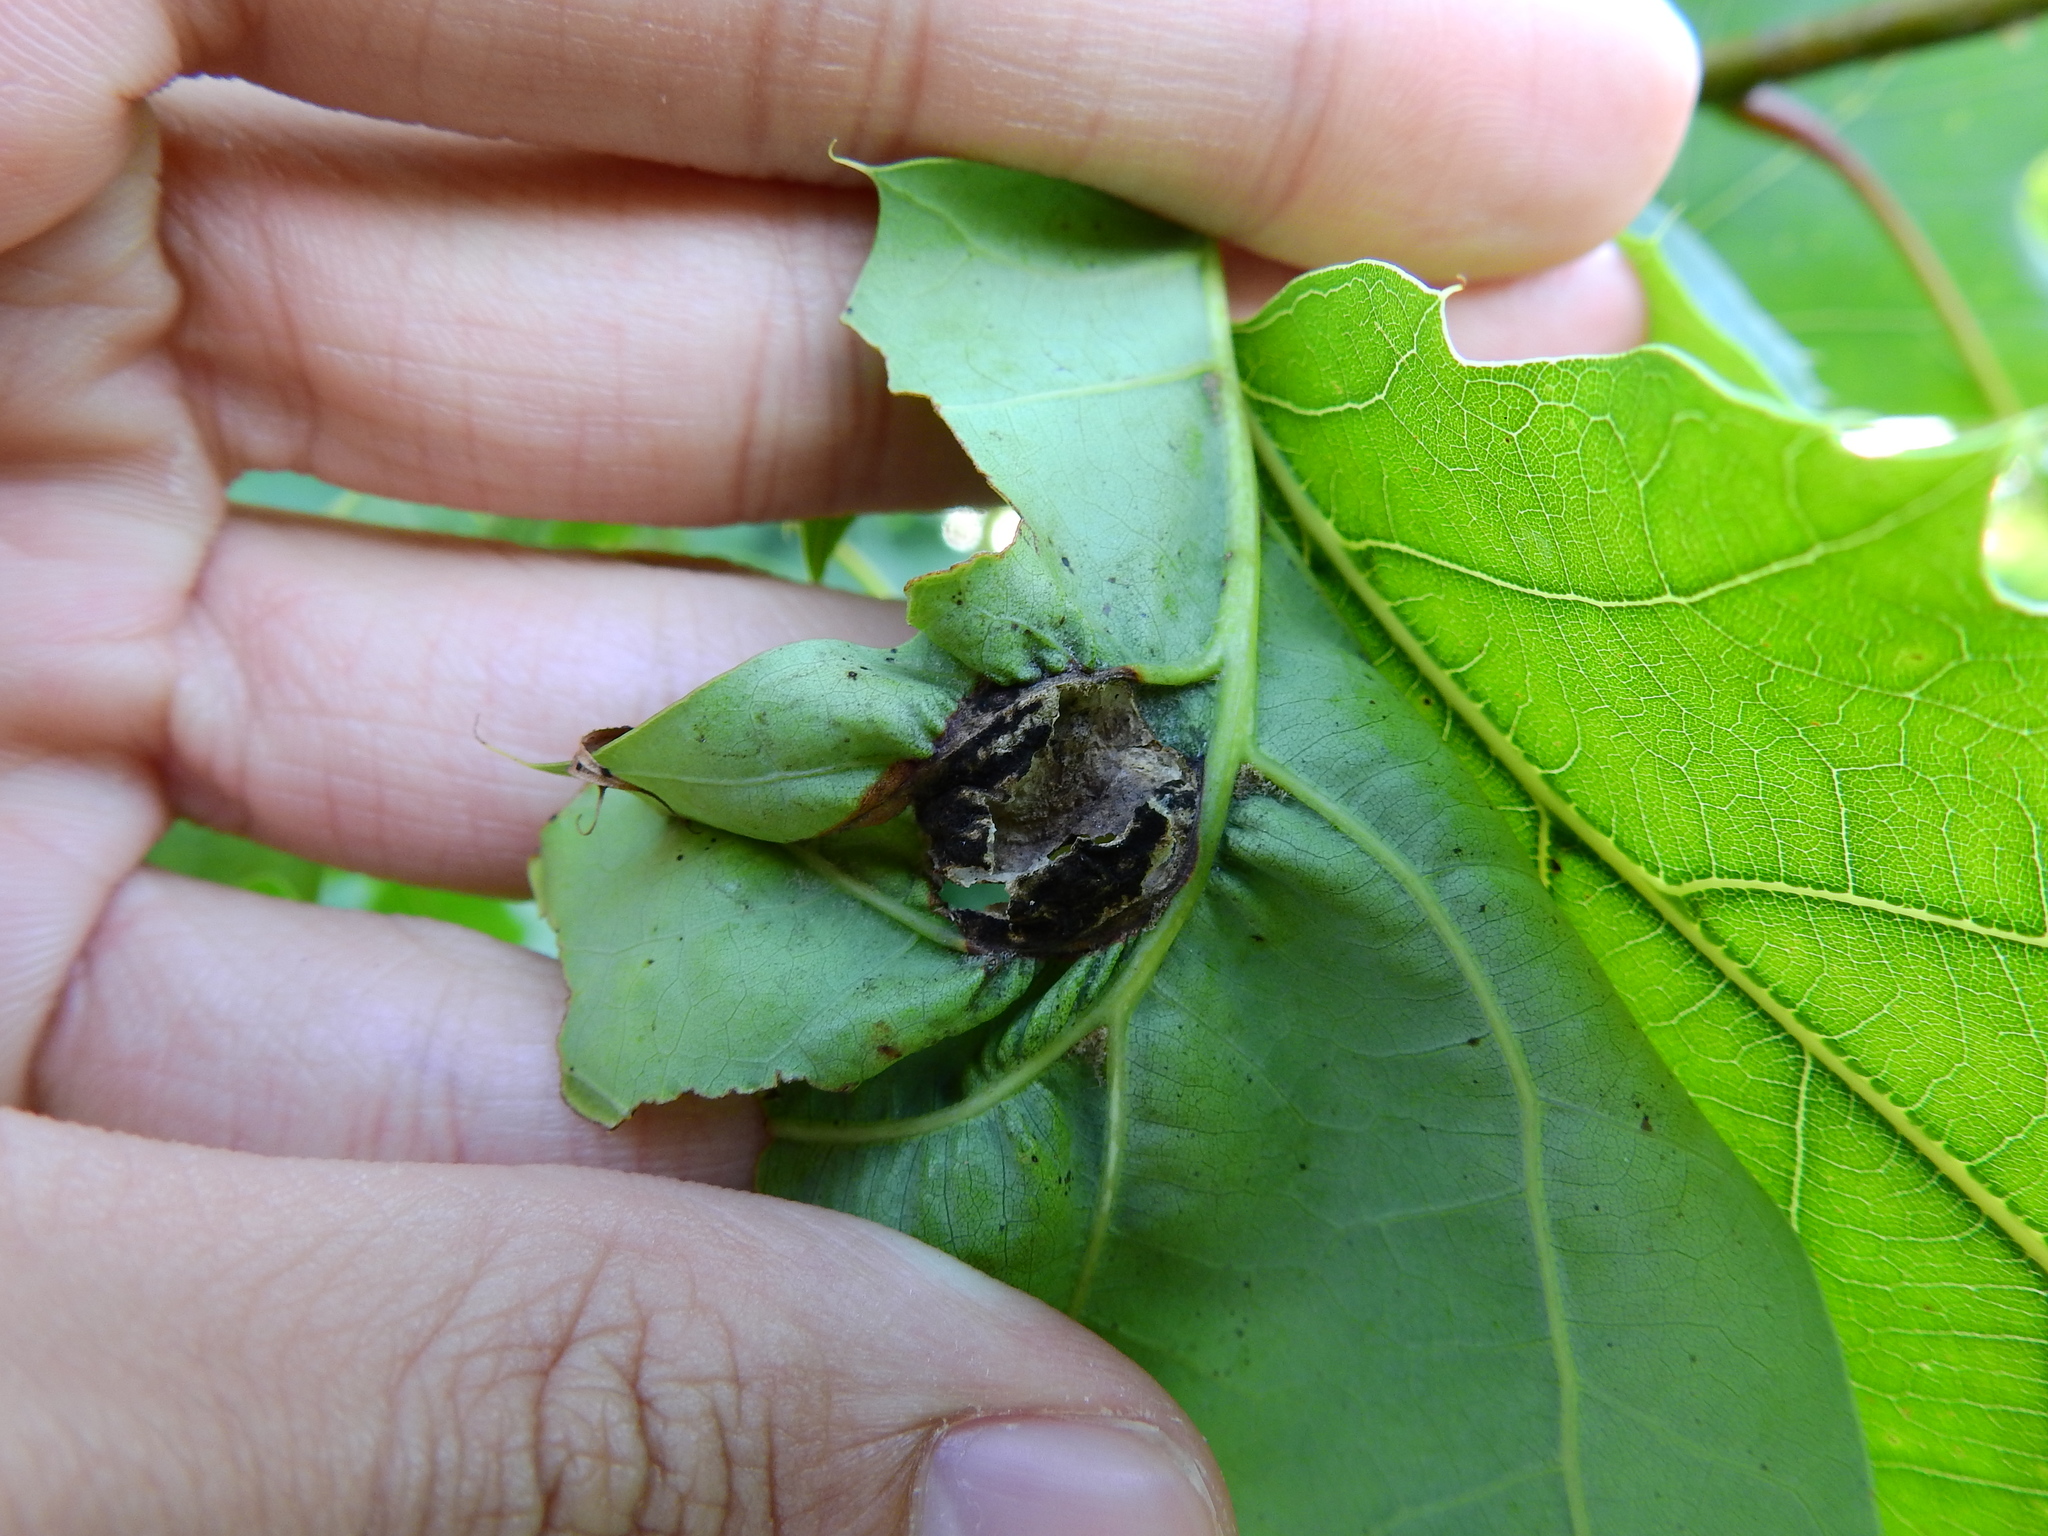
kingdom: Animalia
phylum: Arthropoda
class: Insecta
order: Hymenoptera
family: Cynipidae
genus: Callirhytis
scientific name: Callirhytis
